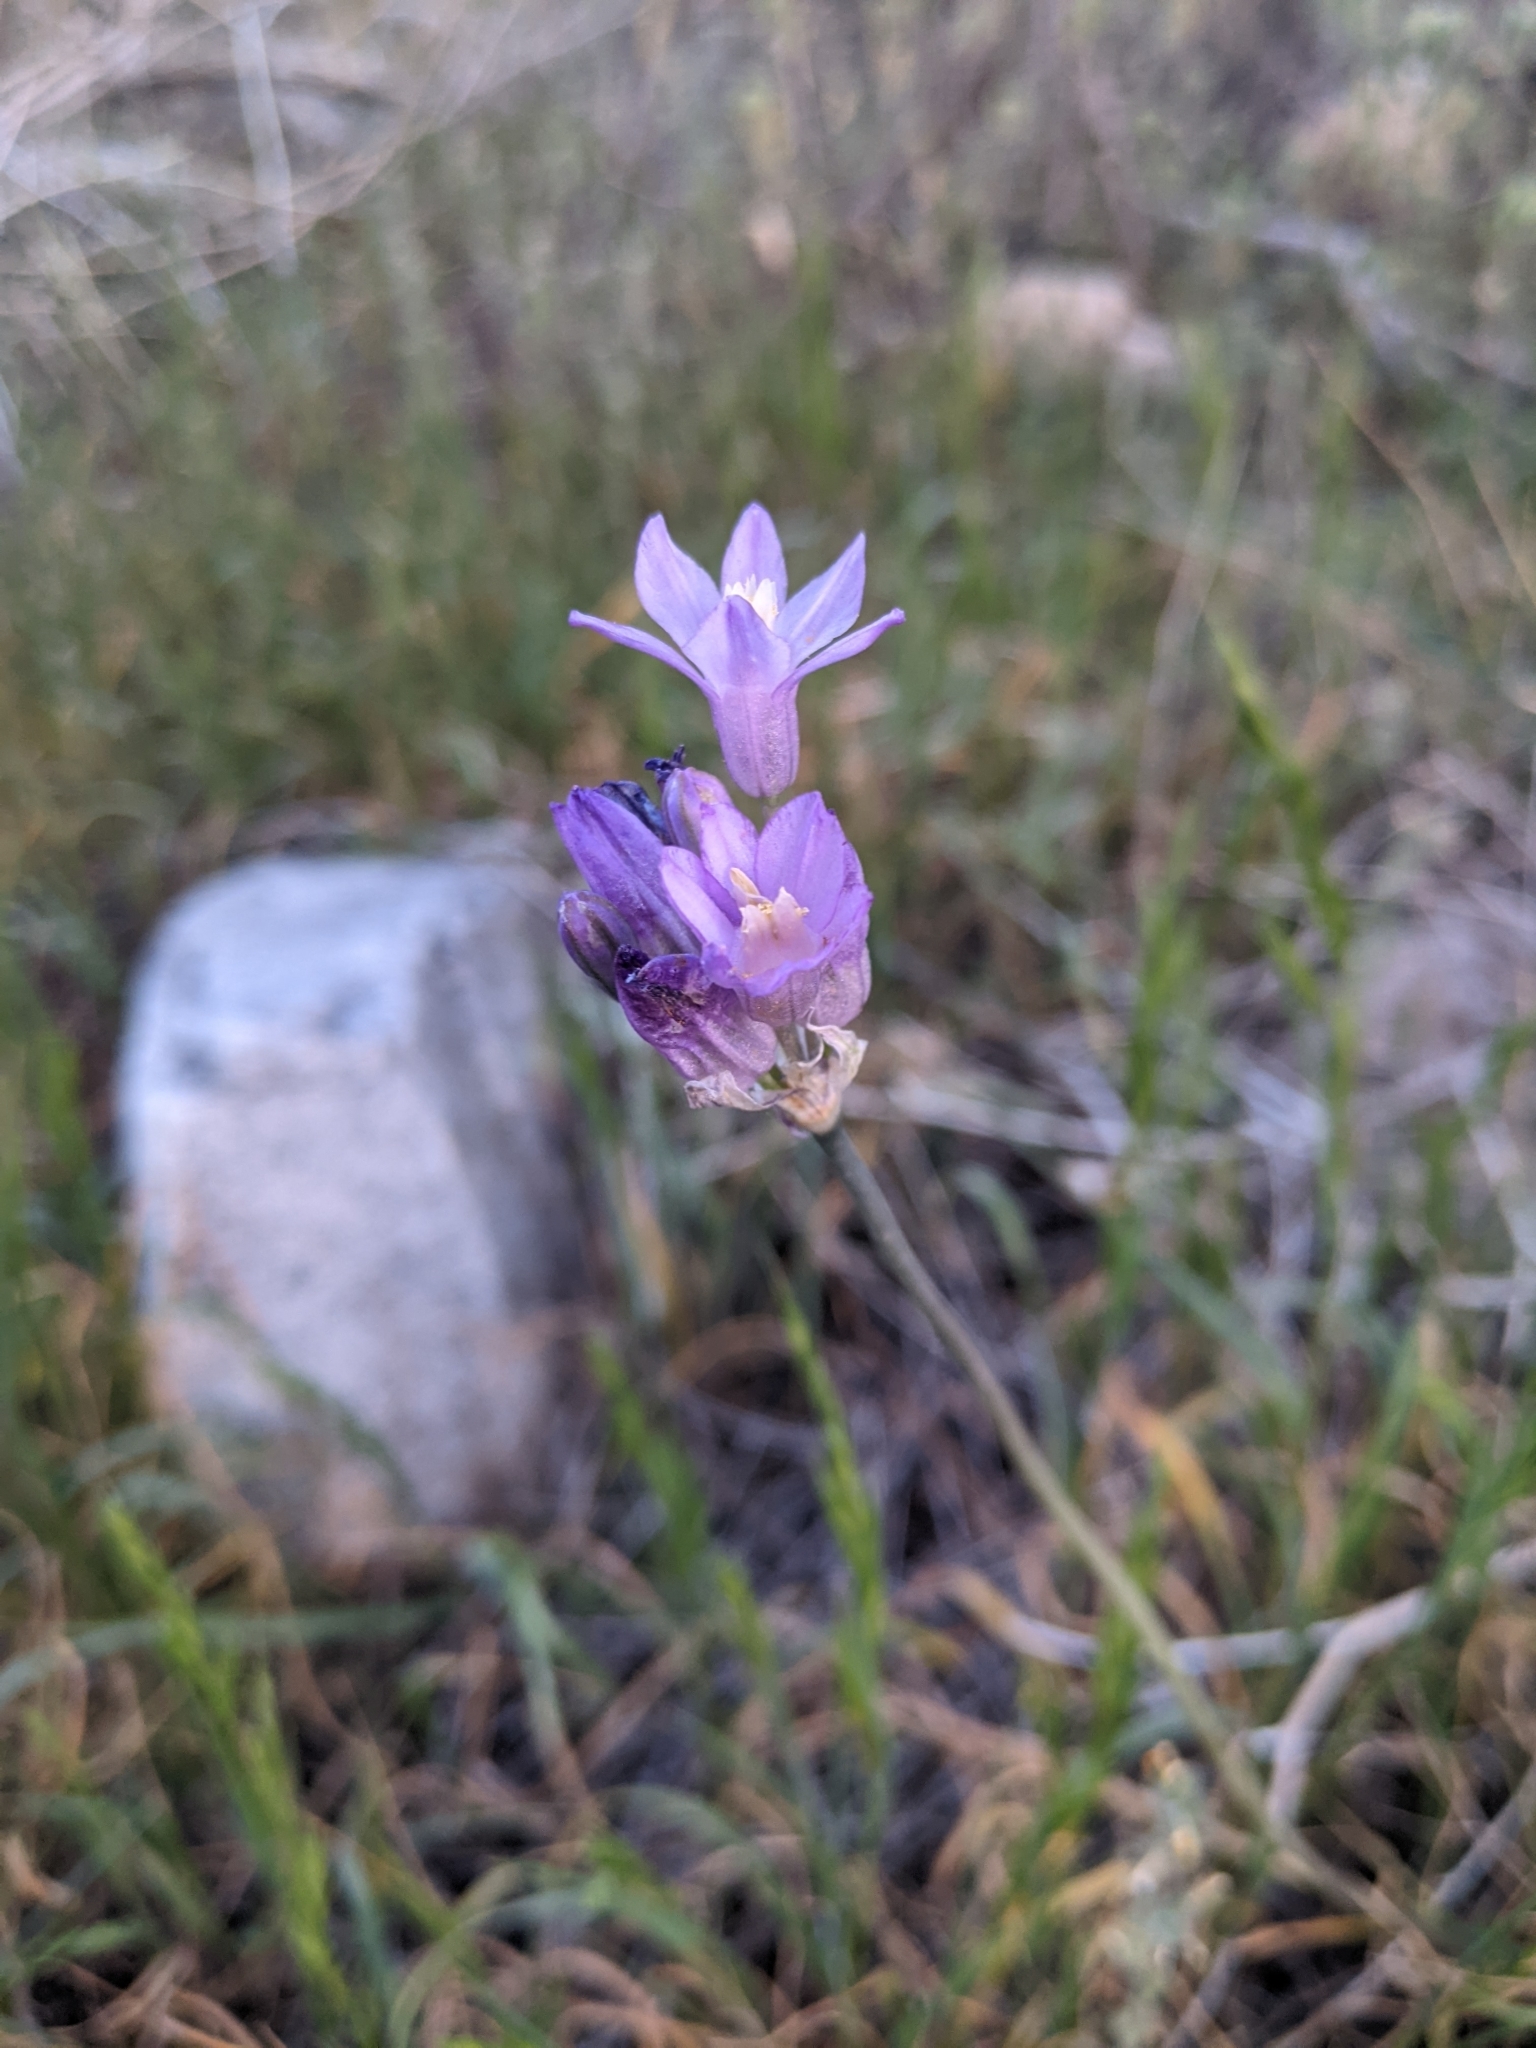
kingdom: Plantae
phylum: Tracheophyta
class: Liliopsida
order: Asparagales
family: Asparagaceae
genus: Dipterostemon
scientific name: Dipterostemon capitatus
